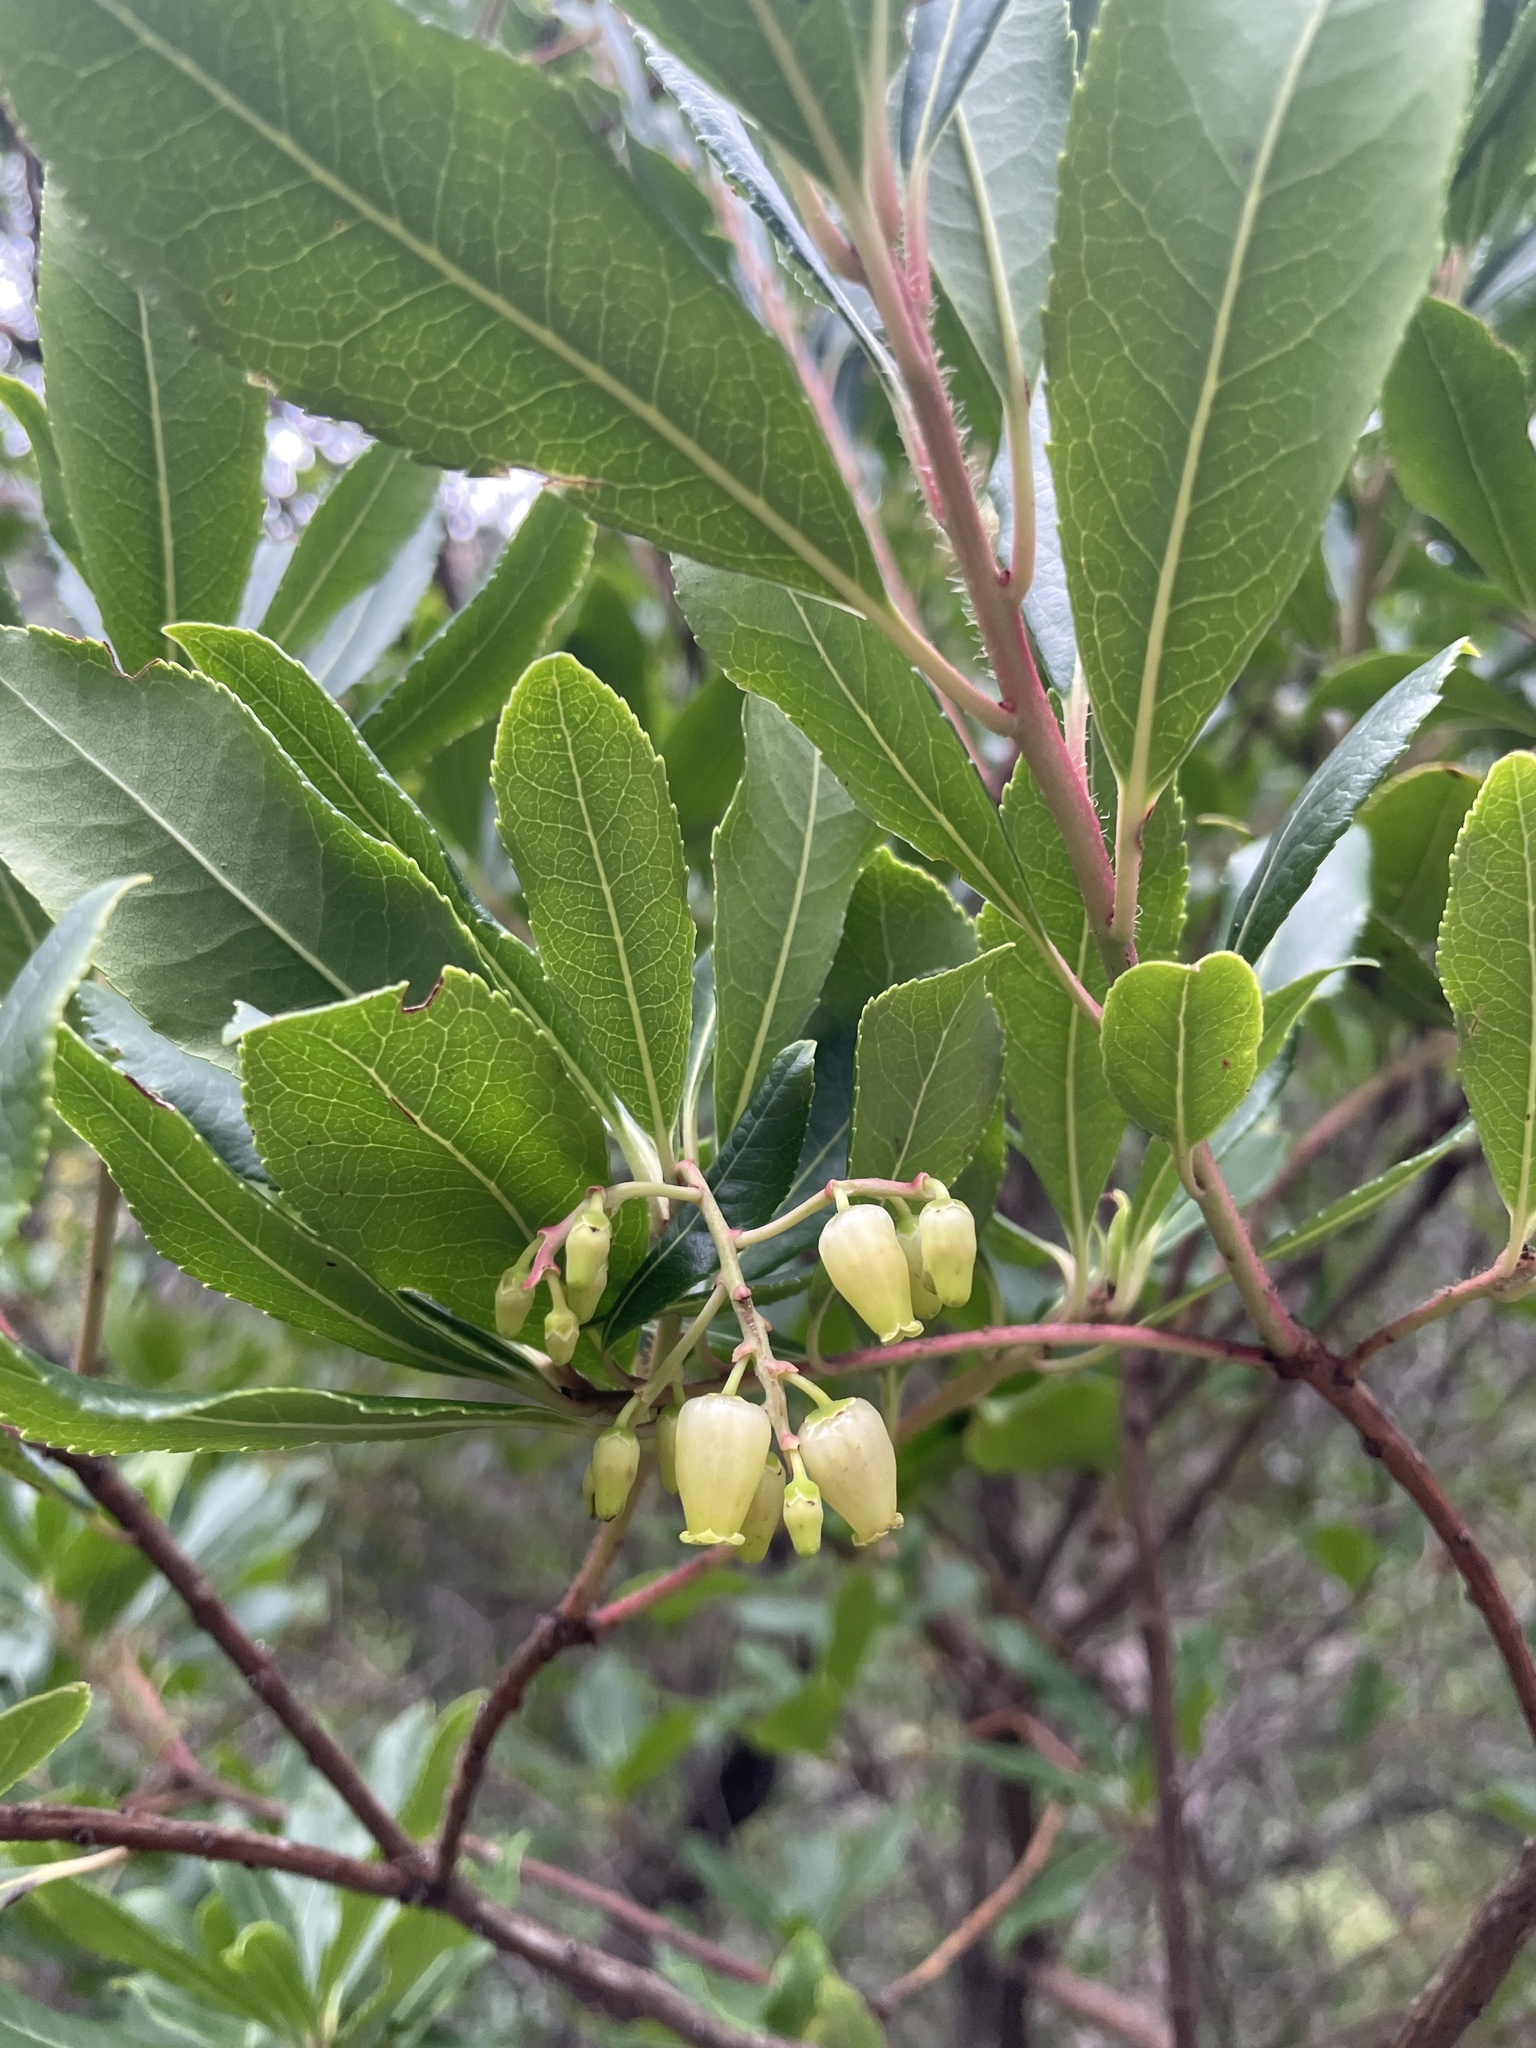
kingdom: Plantae
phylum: Tracheophyta
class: Magnoliopsida
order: Ericales
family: Ericaceae
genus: Arbutus
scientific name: Arbutus unedo
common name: Strawberry-tree
